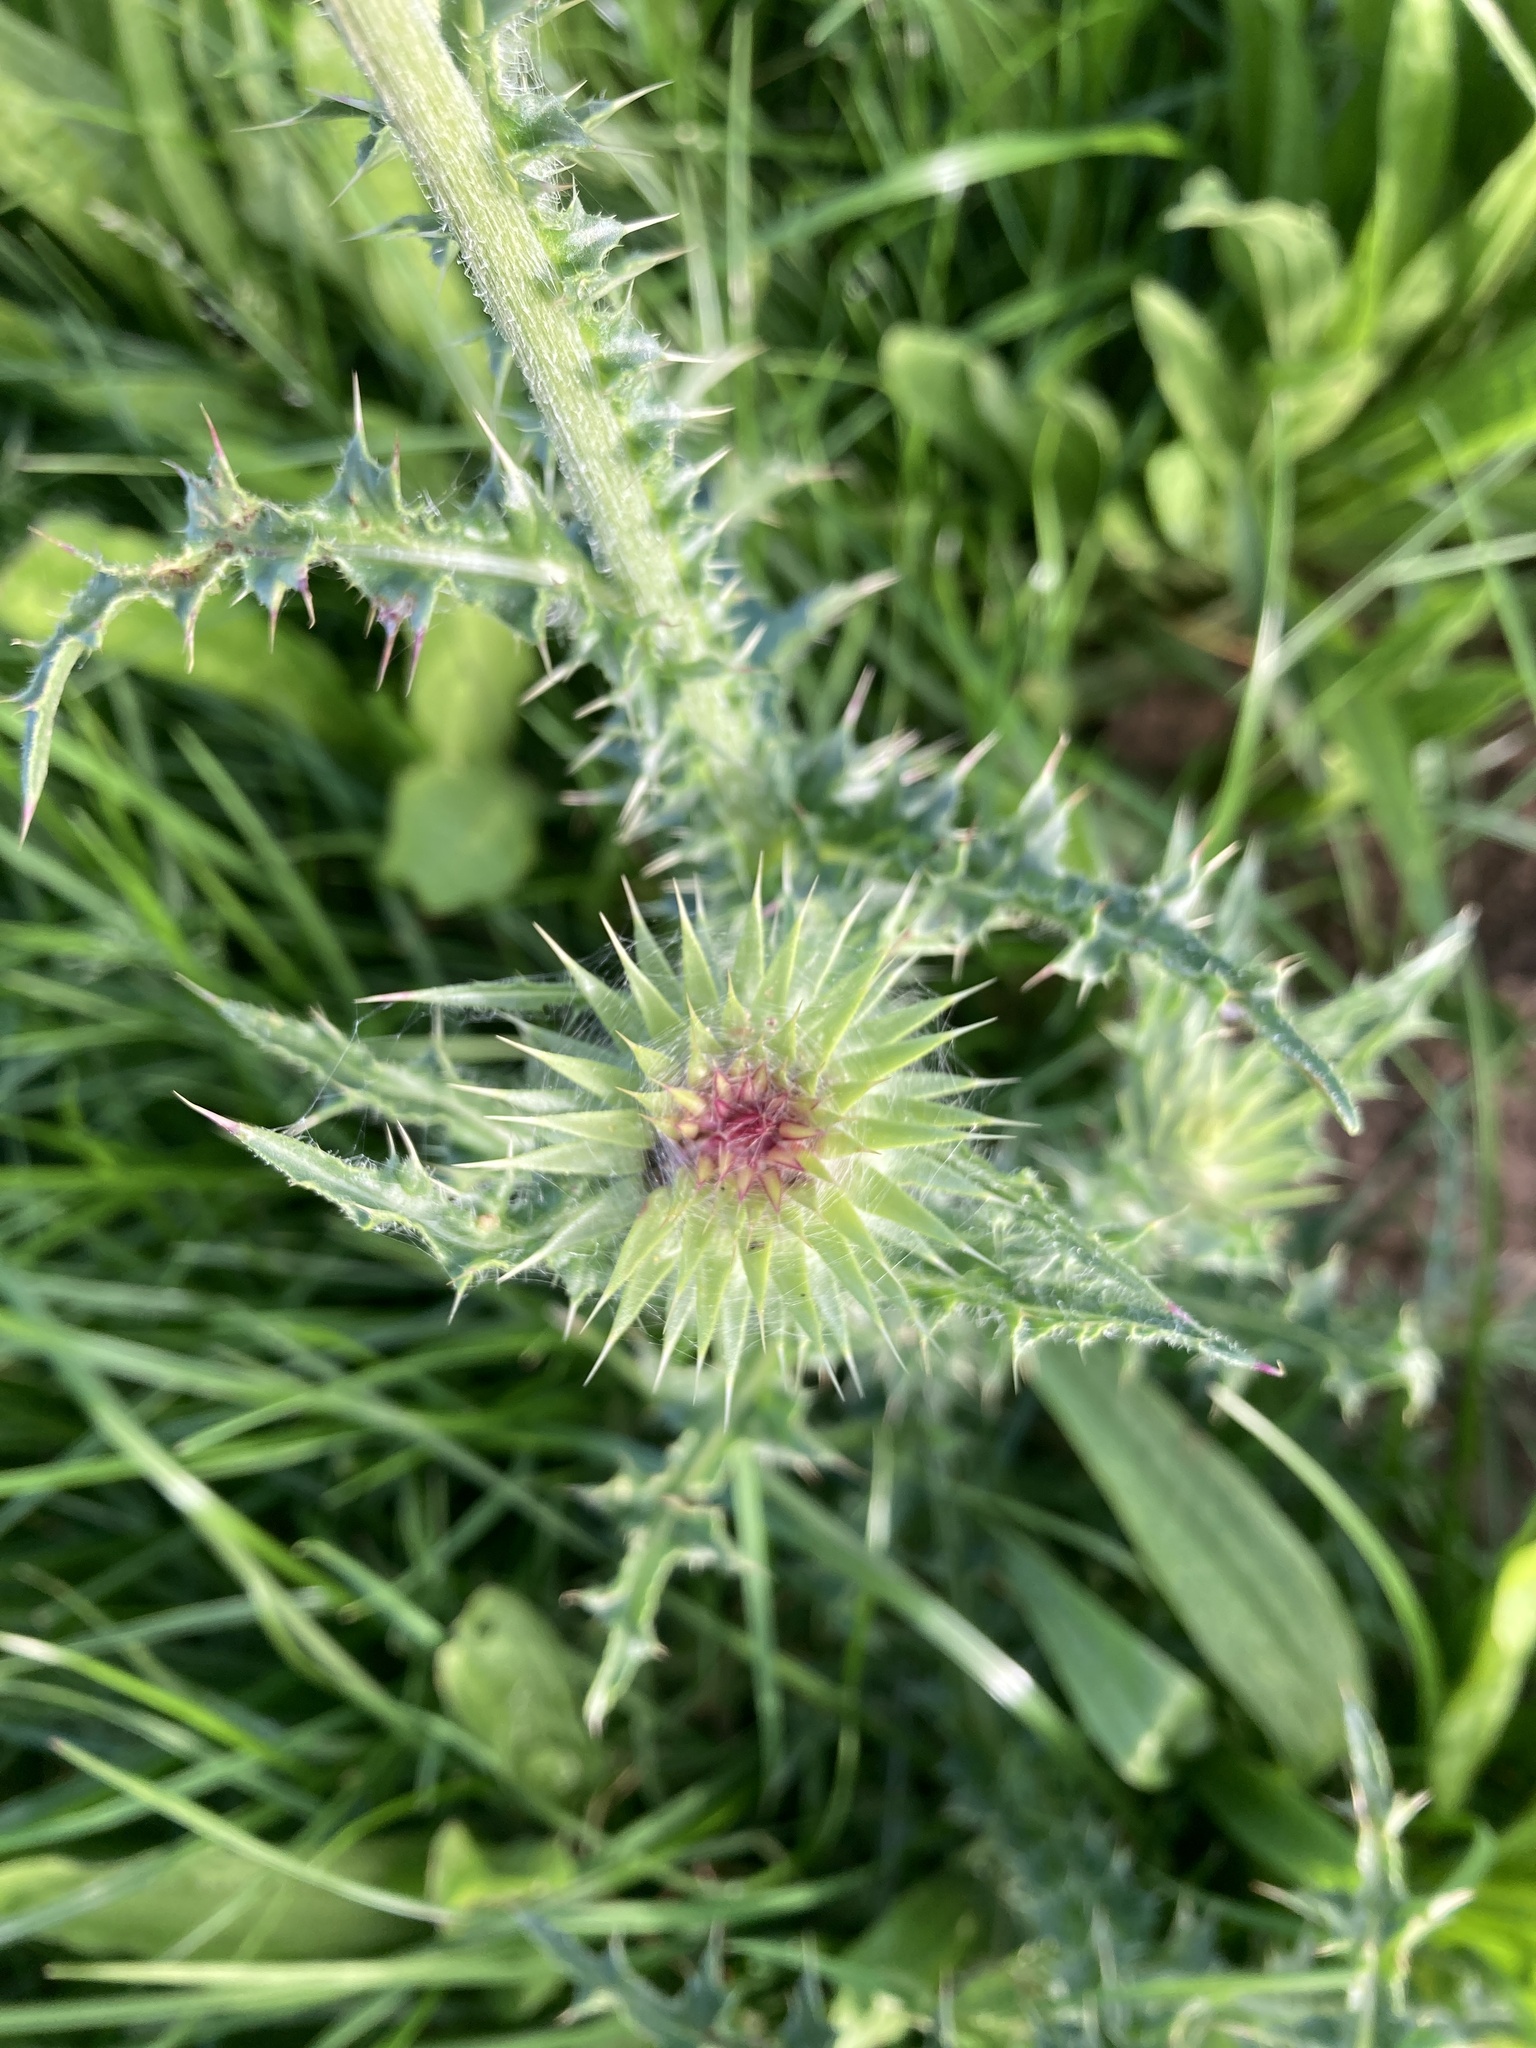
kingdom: Plantae
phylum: Tracheophyta
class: Magnoliopsida
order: Asterales
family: Asteraceae
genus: Carduus
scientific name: Carduus nutans
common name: Musk thistle
